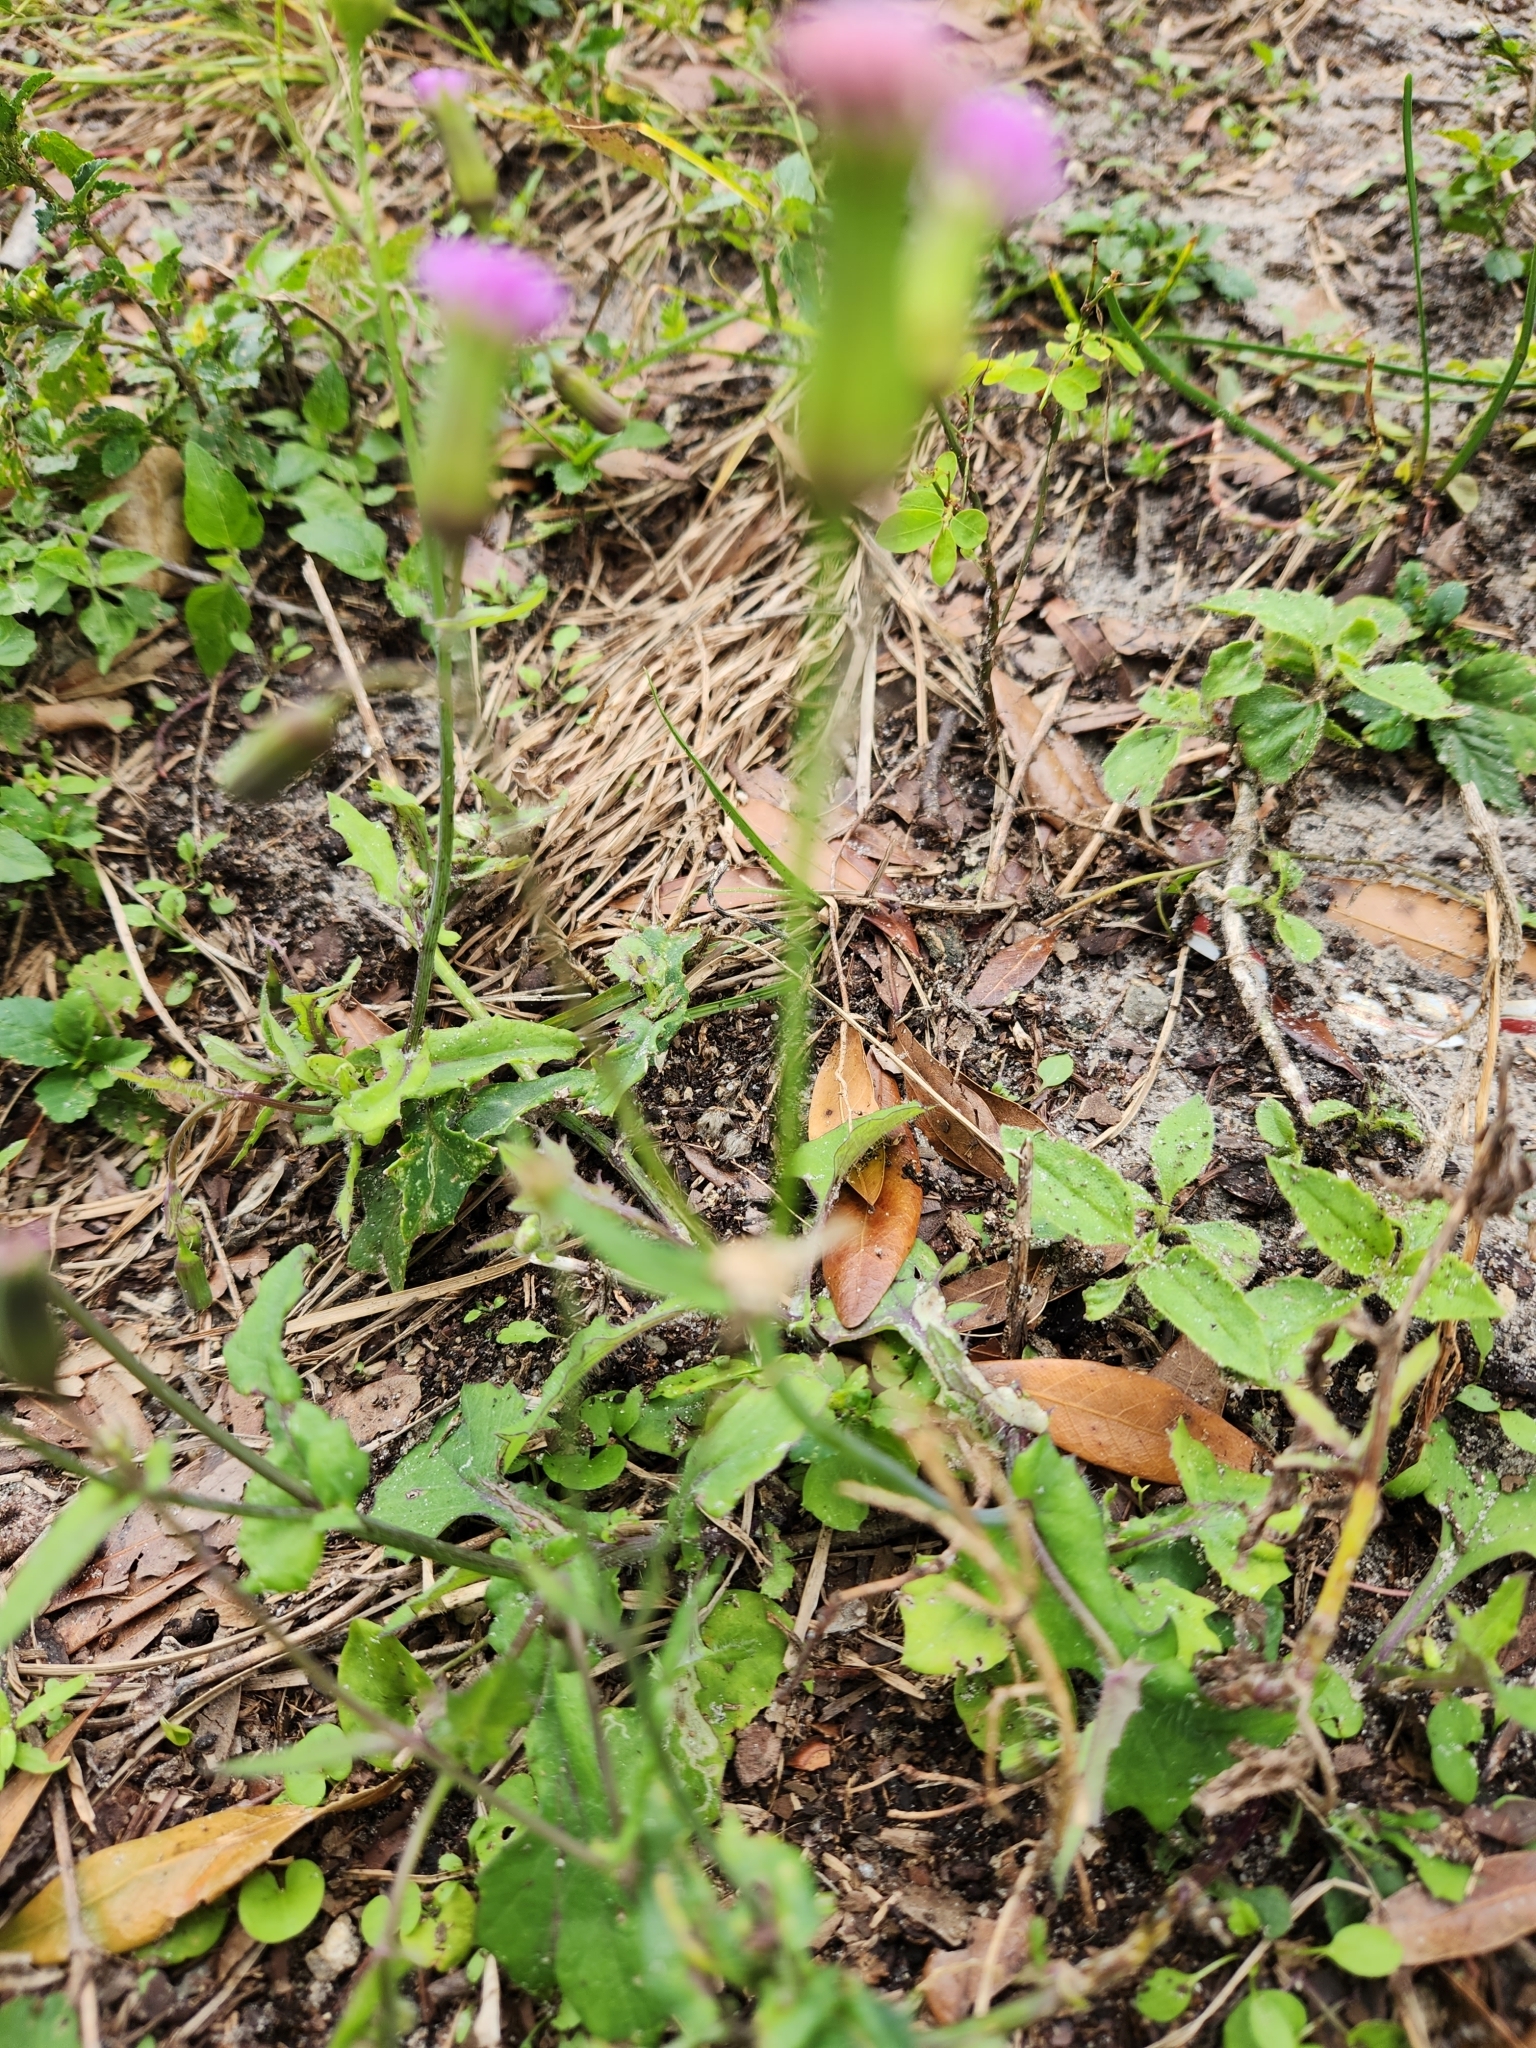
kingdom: Plantae
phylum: Tracheophyta
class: Magnoliopsida
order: Asterales
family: Asteraceae
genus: Emilia
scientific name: Emilia sonchifolia
